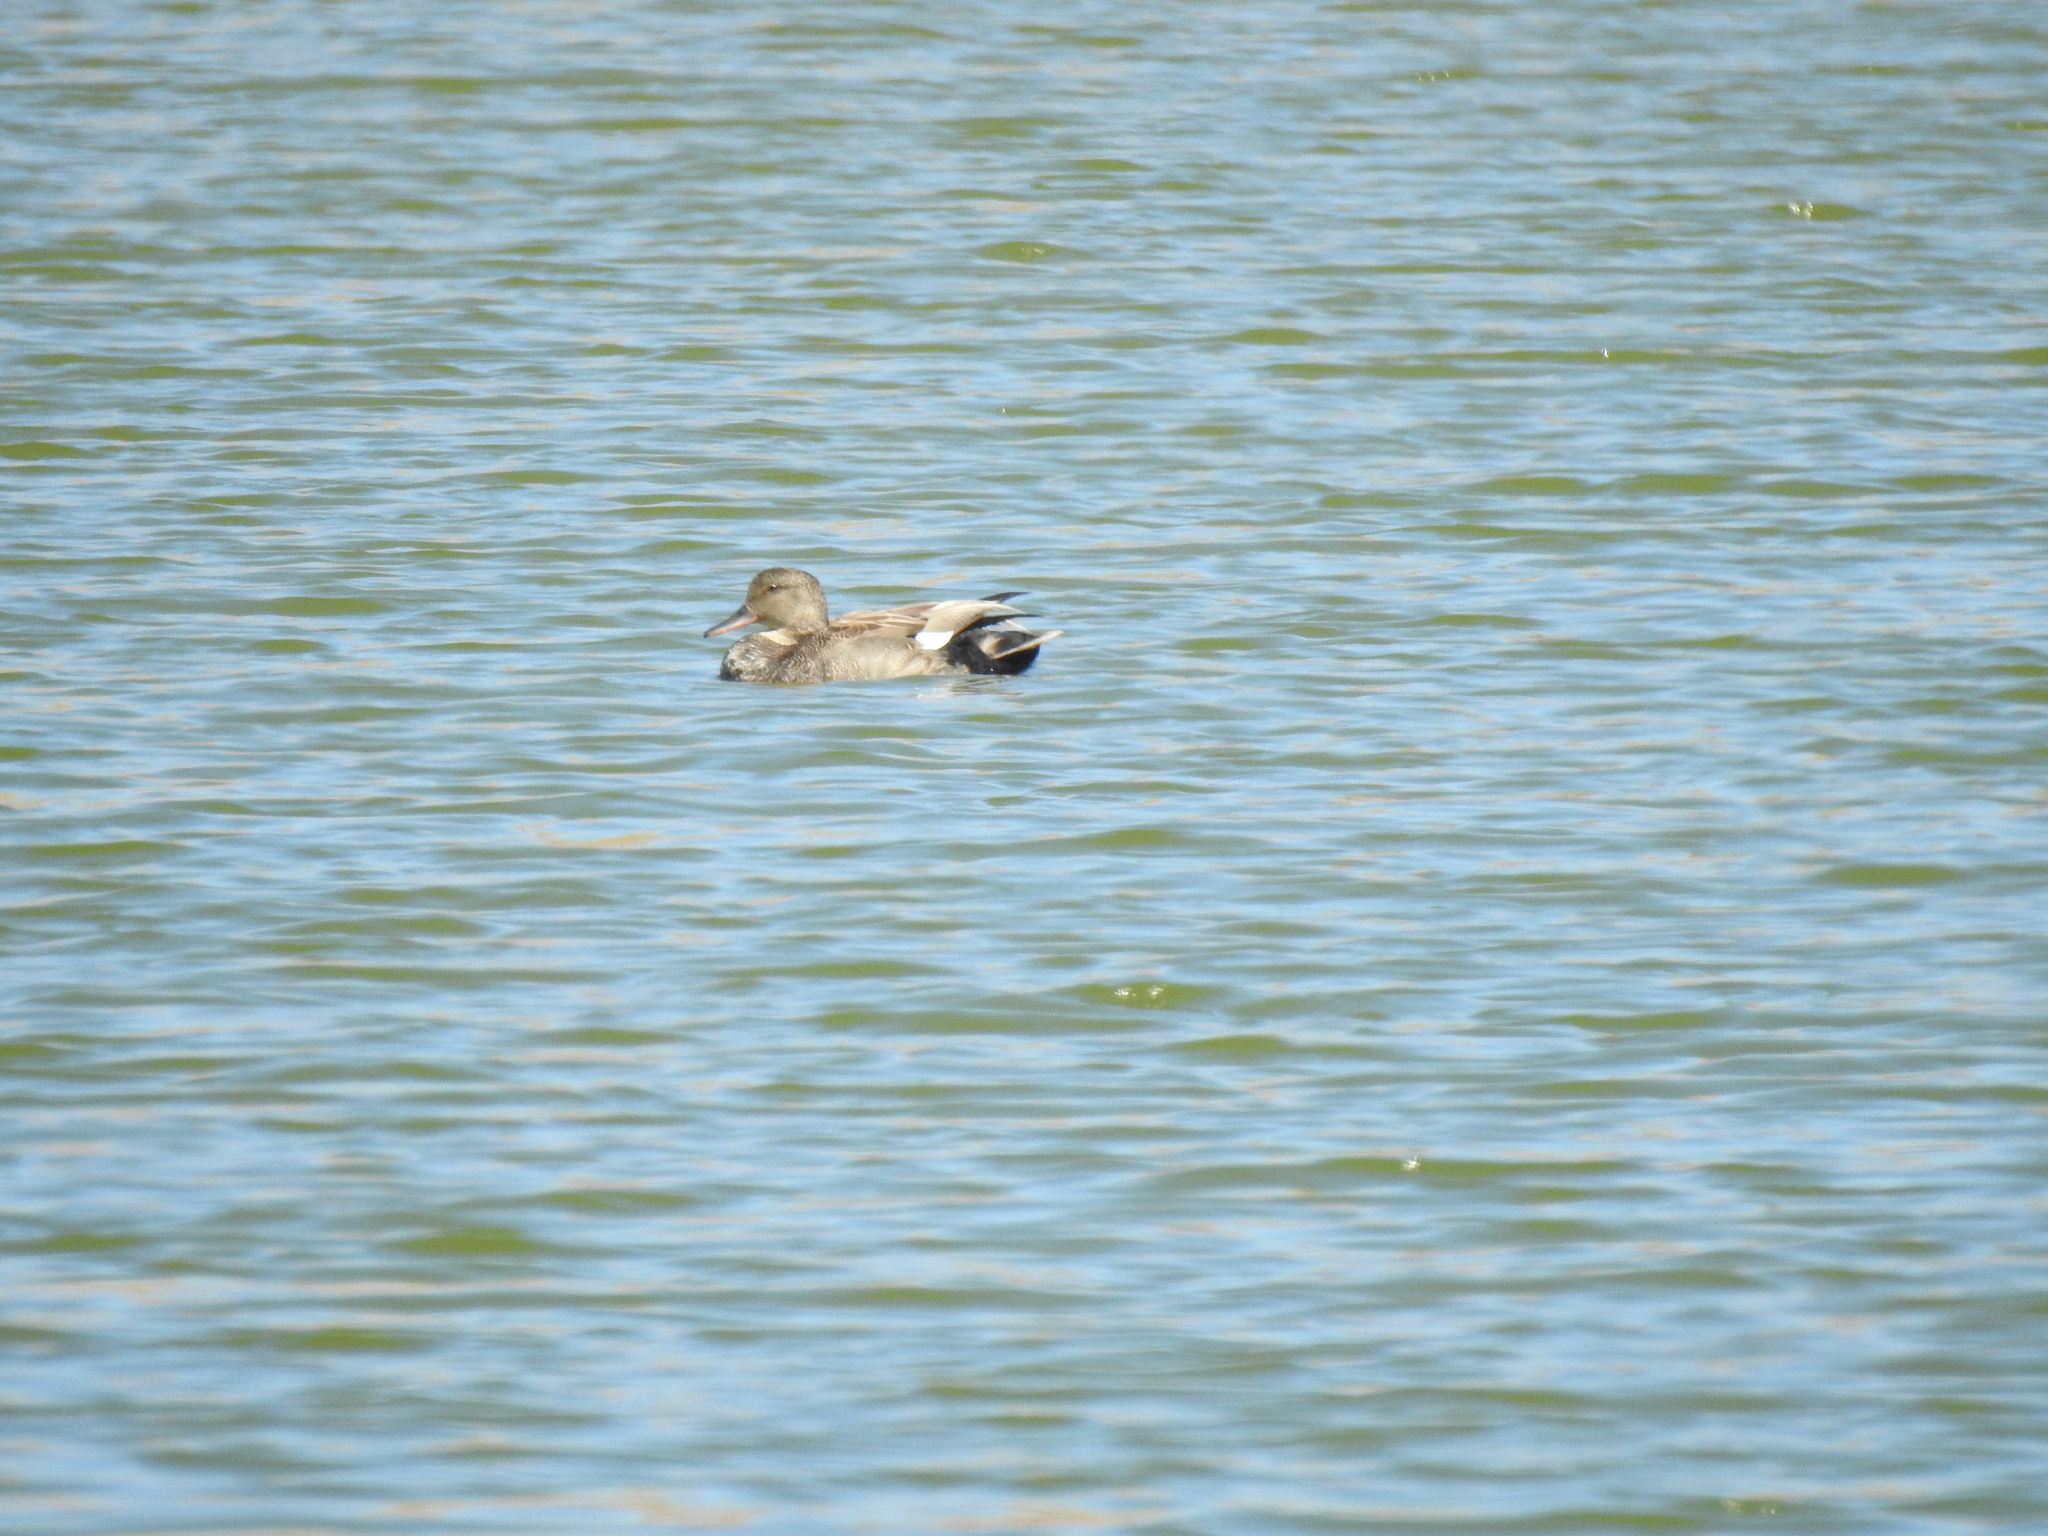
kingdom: Animalia
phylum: Chordata
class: Aves
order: Anseriformes
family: Anatidae
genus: Mareca
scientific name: Mareca strepera
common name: Gadwall
